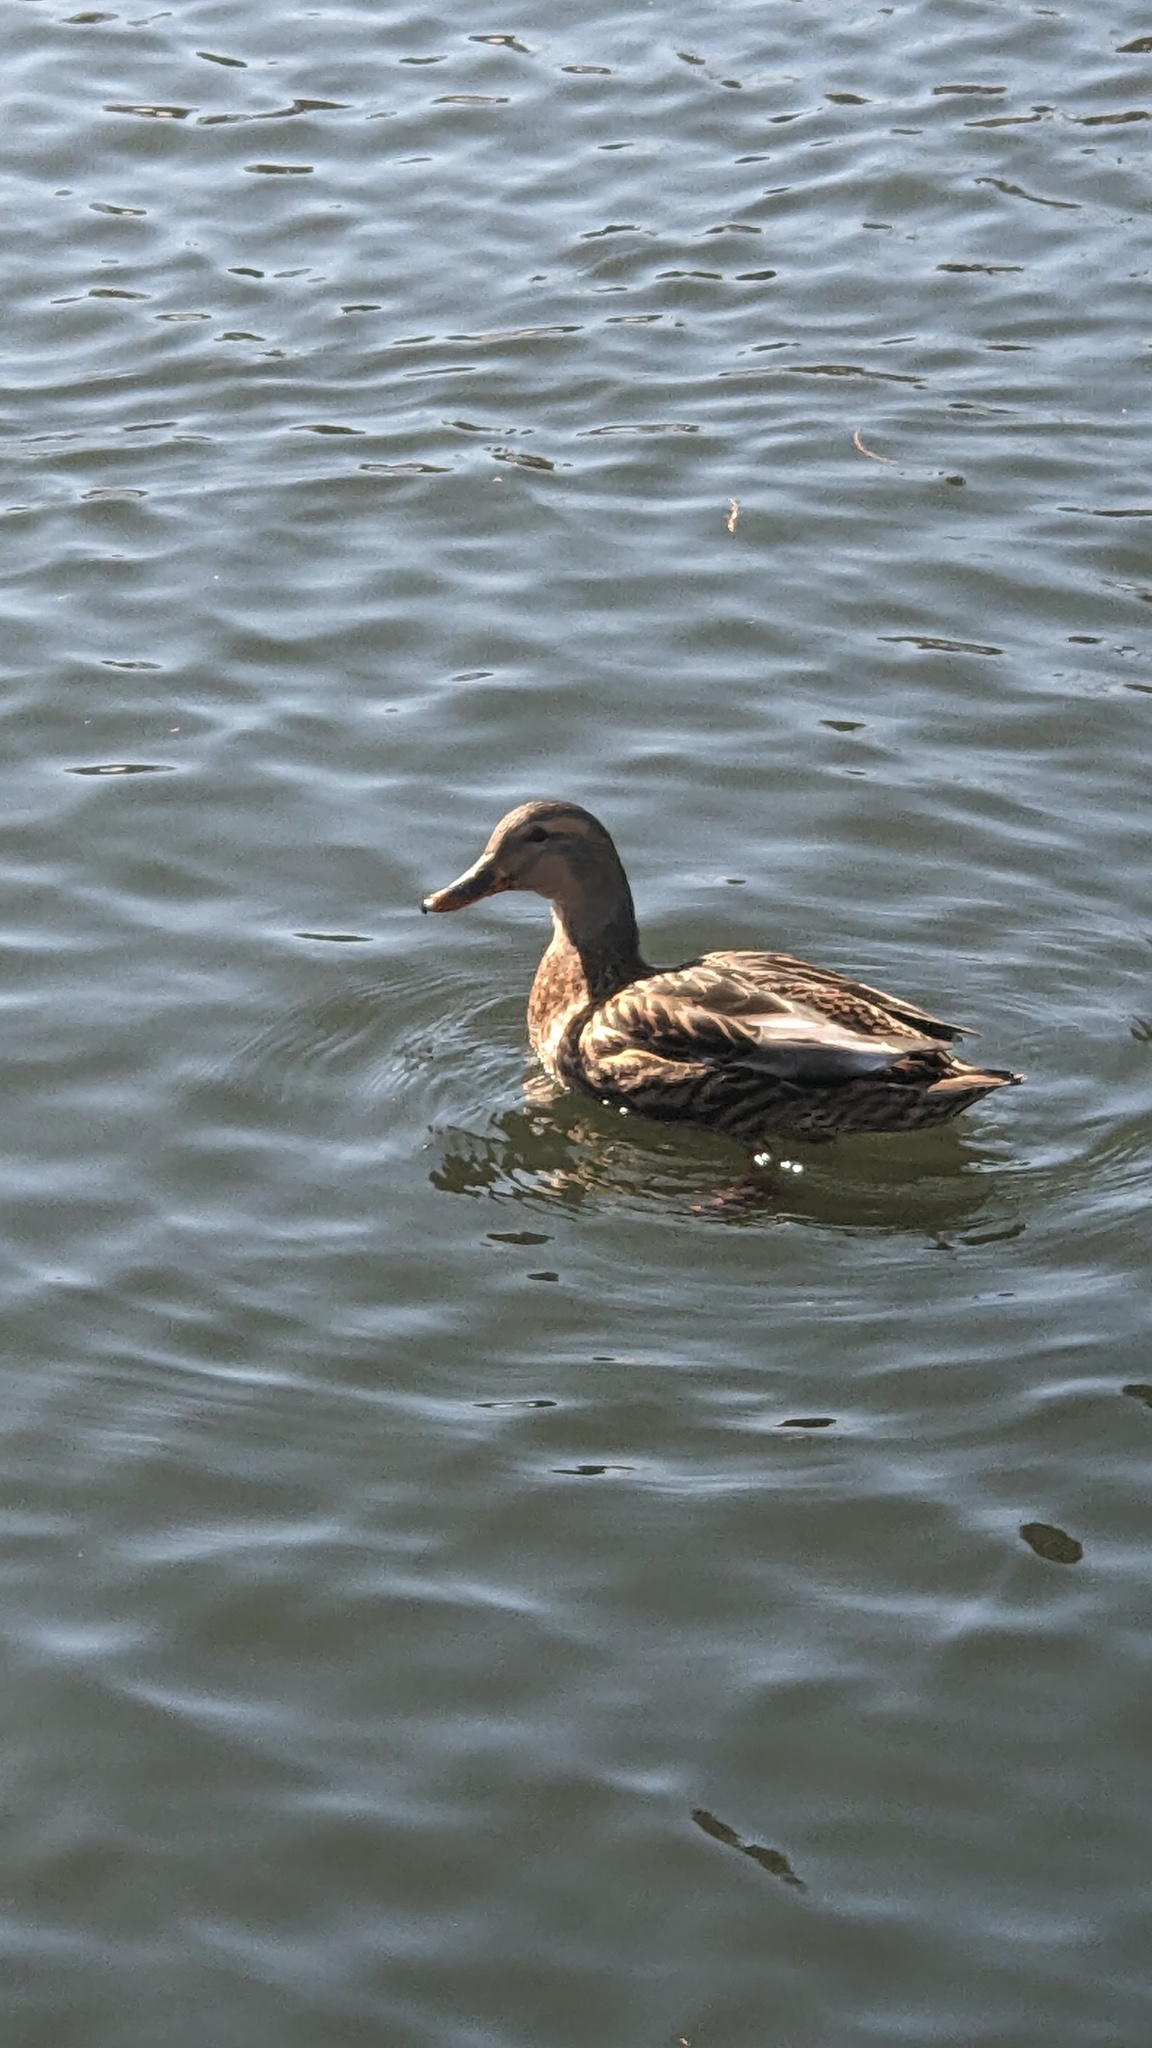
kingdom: Animalia
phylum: Chordata
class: Aves
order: Anseriformes
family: Anatidae
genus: Anas
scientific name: Anas platyrhynchos
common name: Mallard
